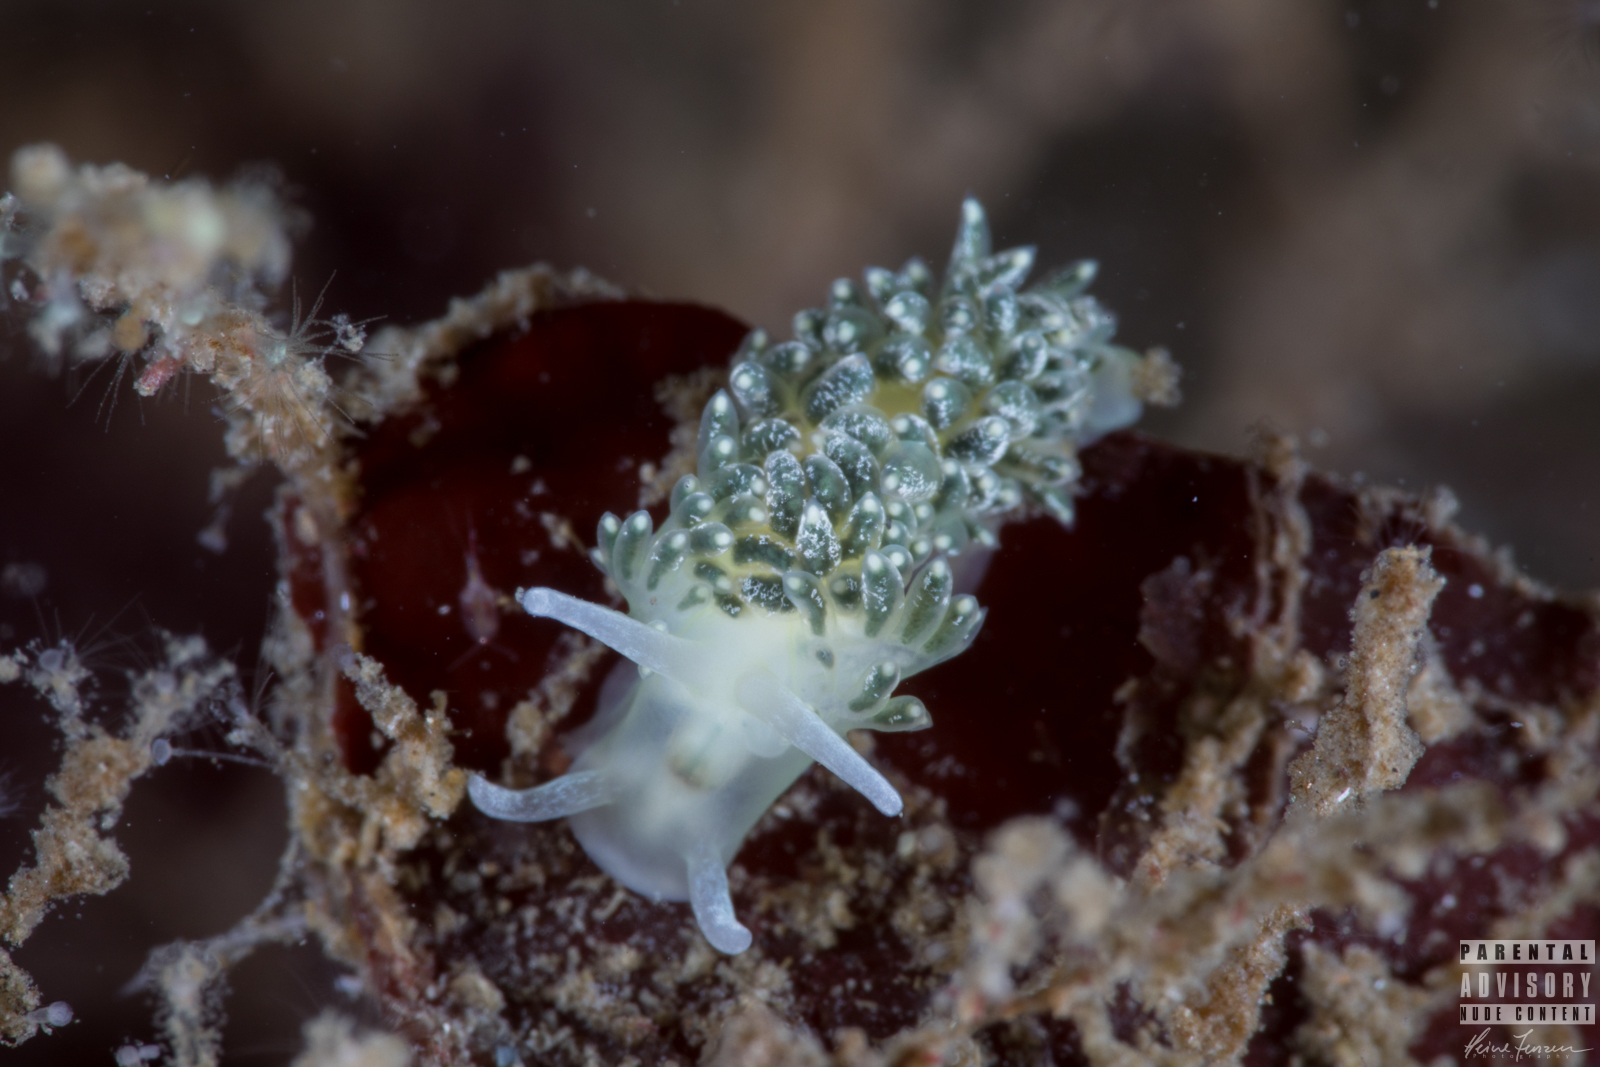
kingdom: Animalia
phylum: Mollusca
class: Gastropoda
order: Nudibranchia
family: Trinchesiidae
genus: Diaphoreolis
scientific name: Diaphoreolis viridis
